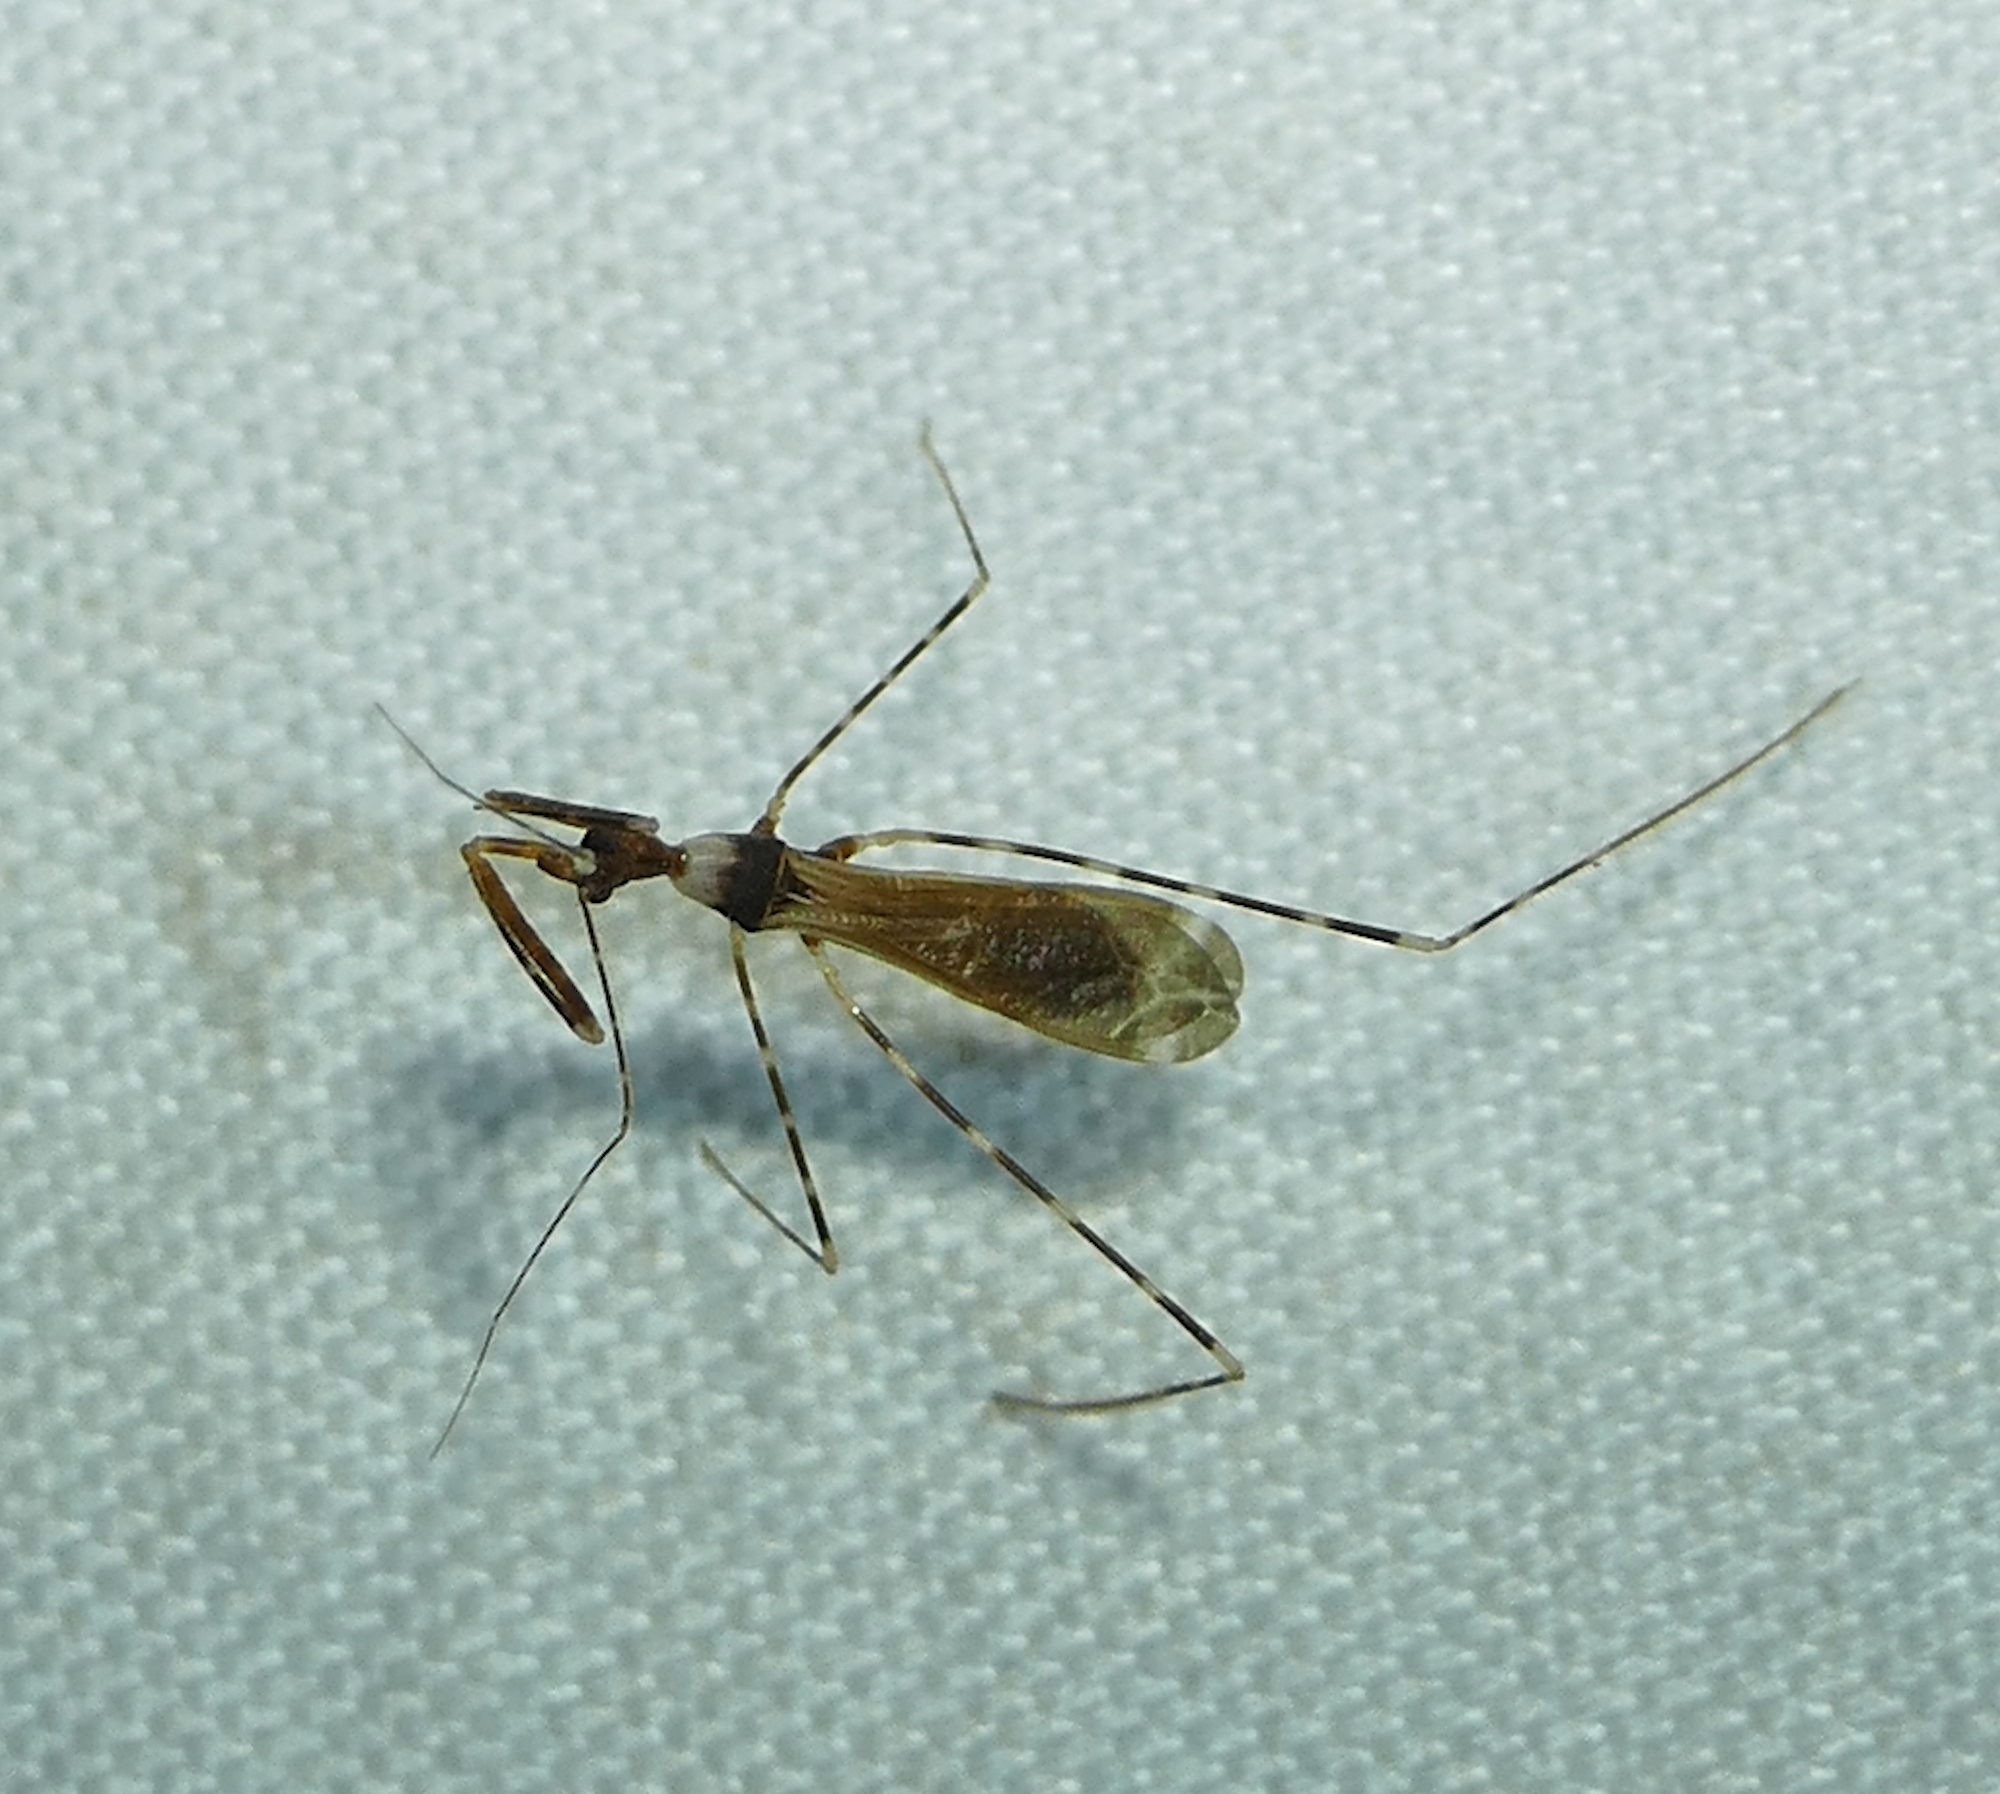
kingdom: Animalia
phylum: Arthropoda
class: Insecta
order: Hemiptera
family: Reduviidae
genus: Stenolemoides
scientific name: Stenolemoides arizonensis
